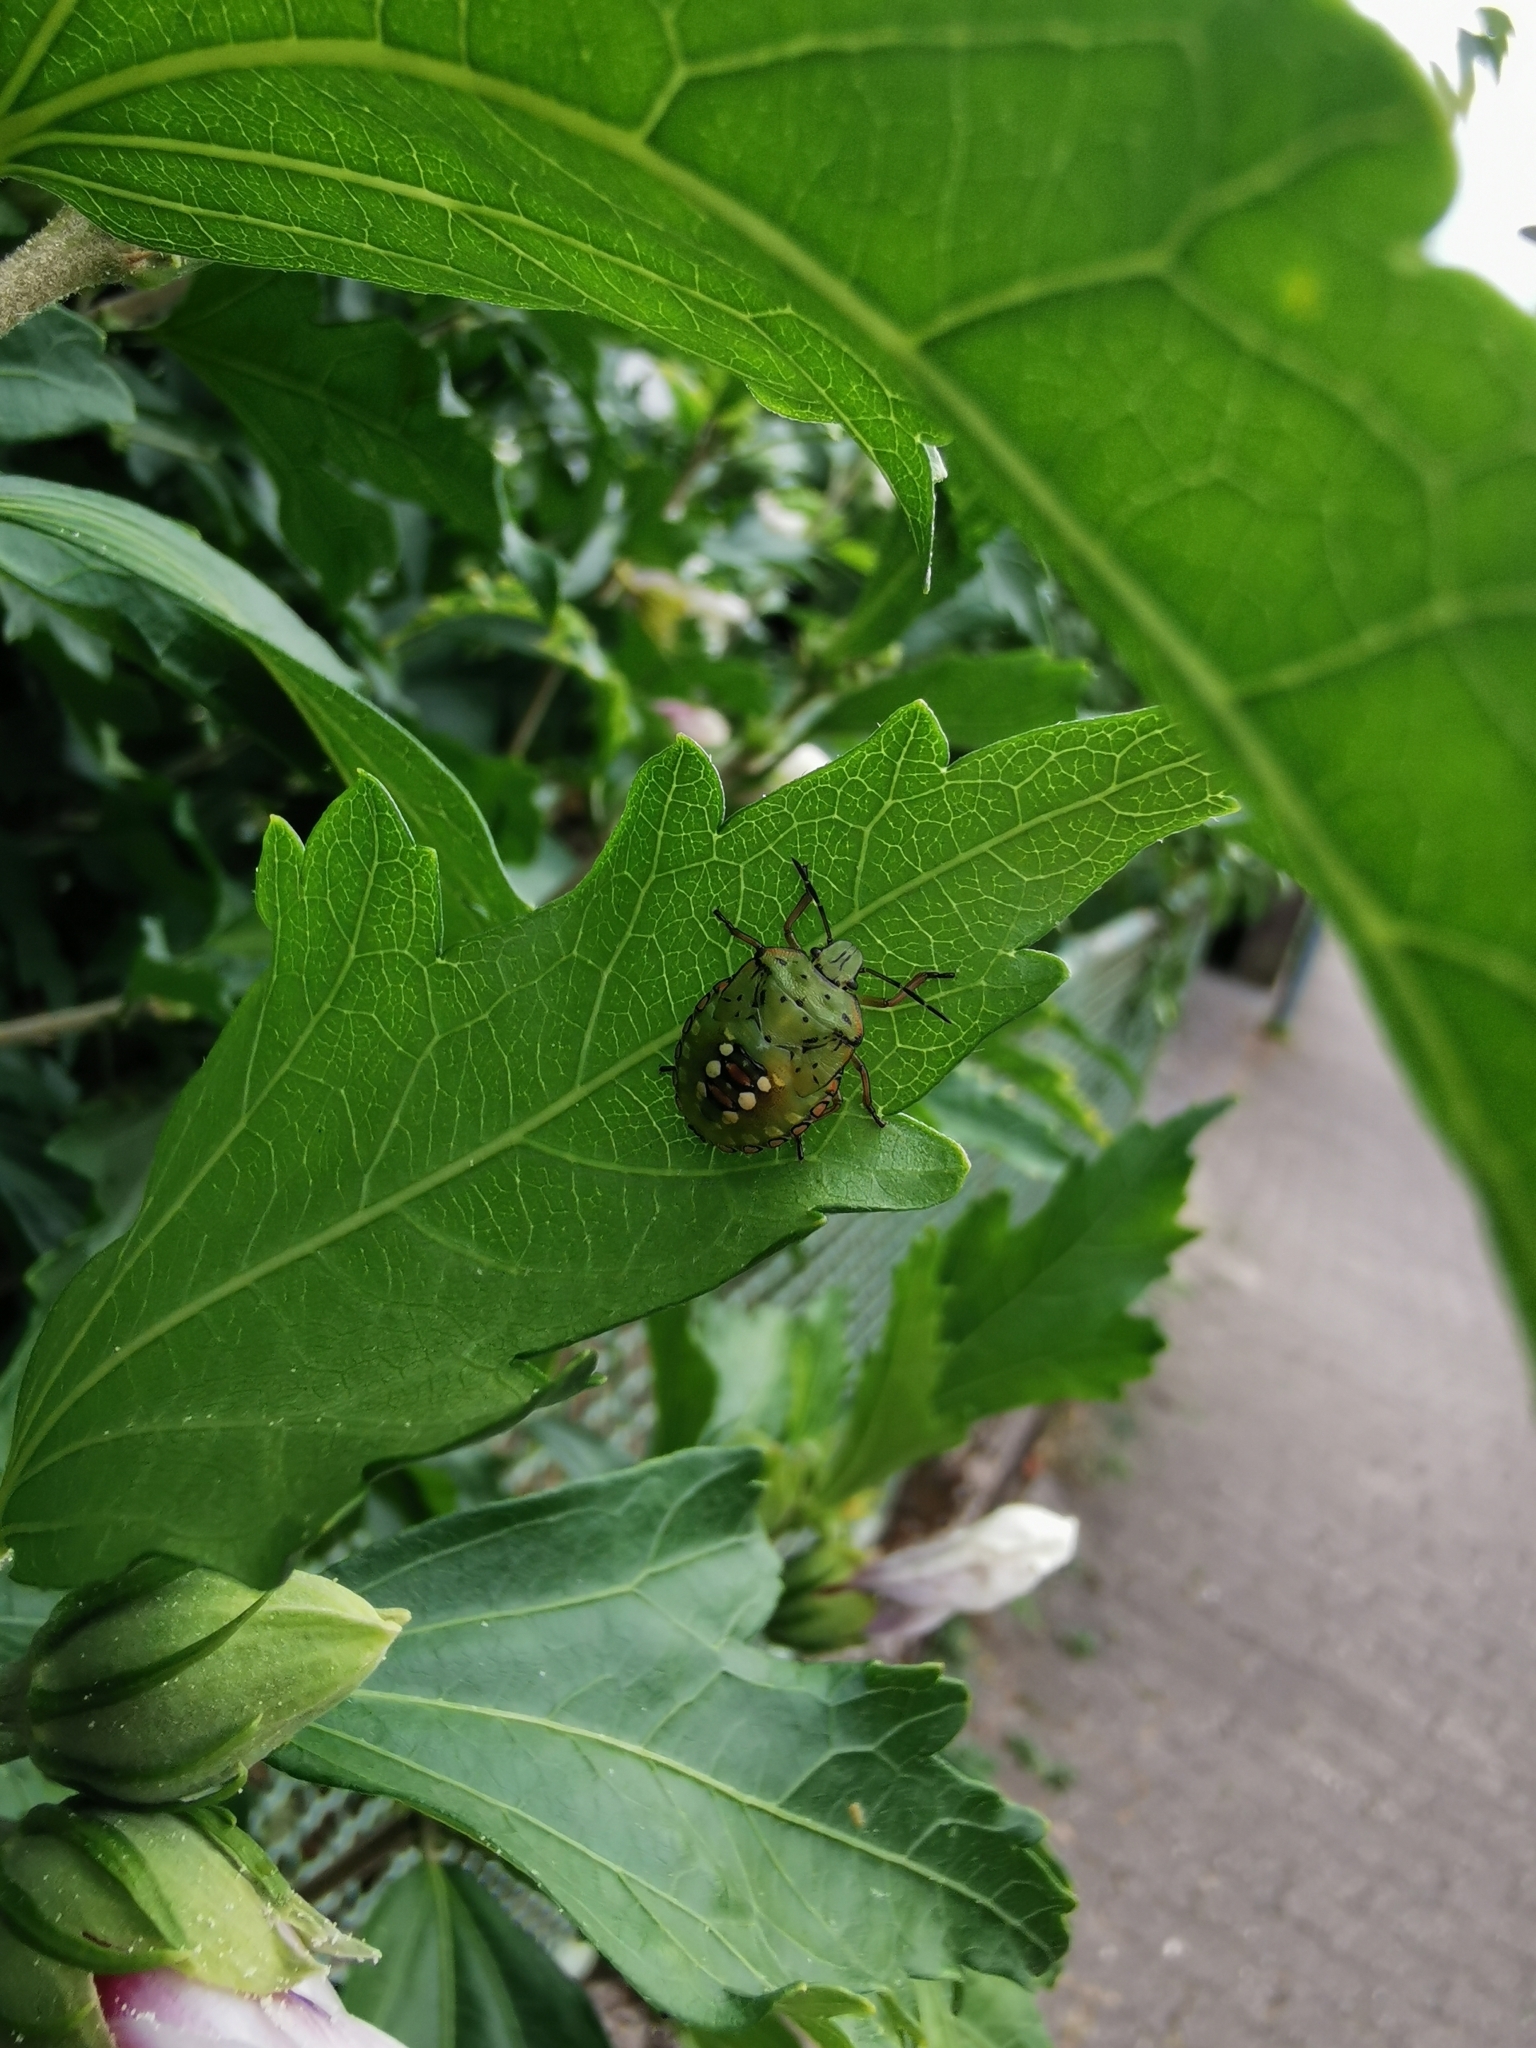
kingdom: Animalia
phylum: Arthropoda
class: Insecta
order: Hemiptera
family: Pentatomidae
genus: Nezara
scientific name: Nezara viridula
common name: Southern green stink bug
